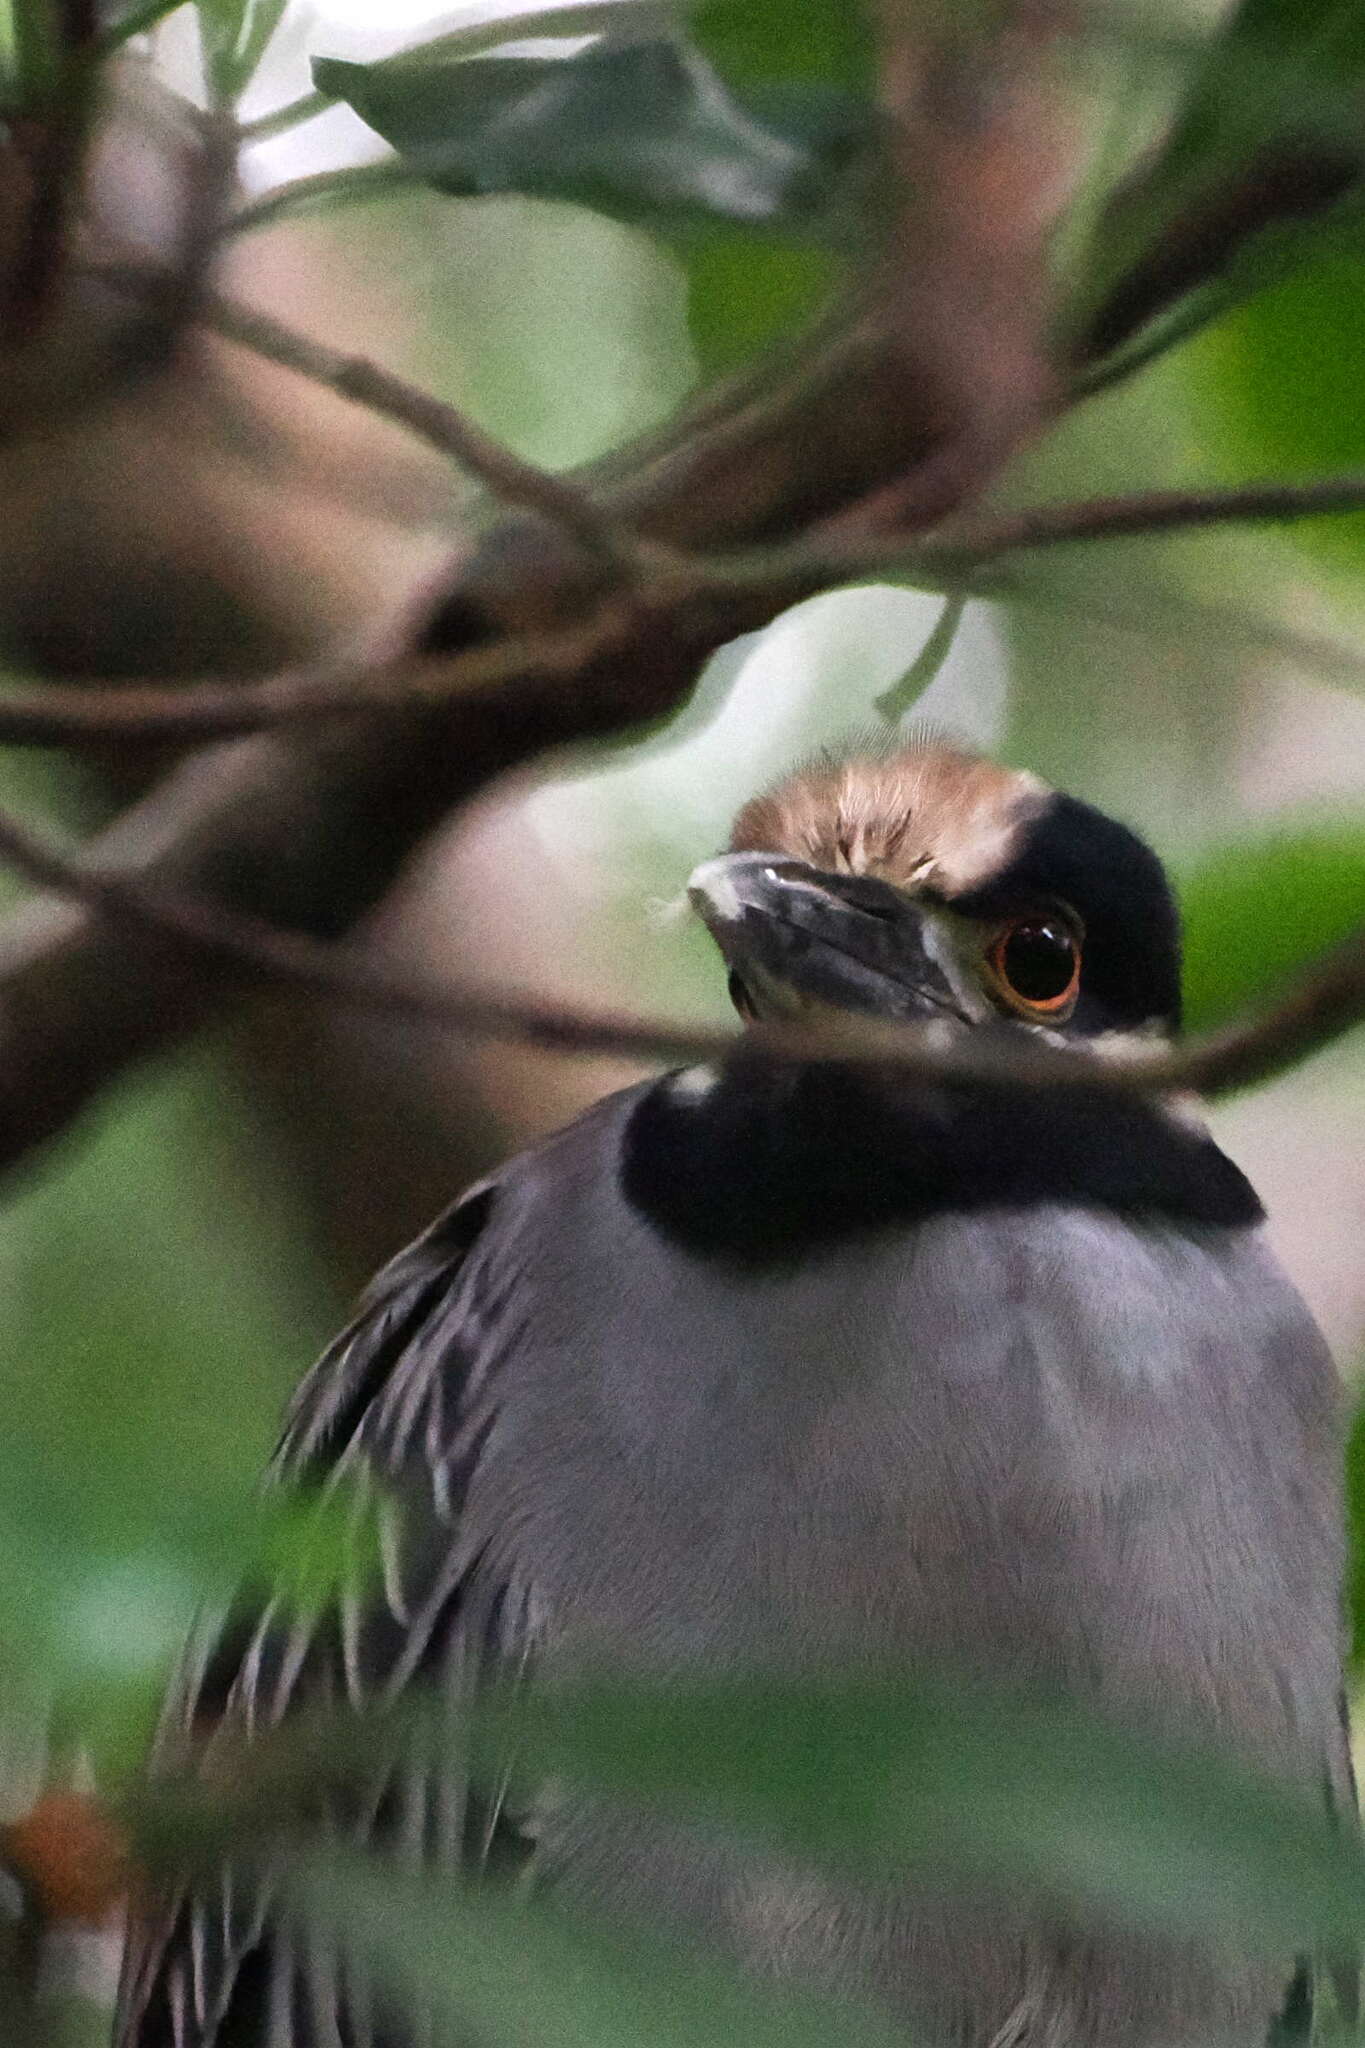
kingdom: Animalia
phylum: Chordata
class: Aves
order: Pelecaniformes
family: Ardeidae
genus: Nyctanassa
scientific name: Nyctanassa violacea
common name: Yellow-crowned night heron
